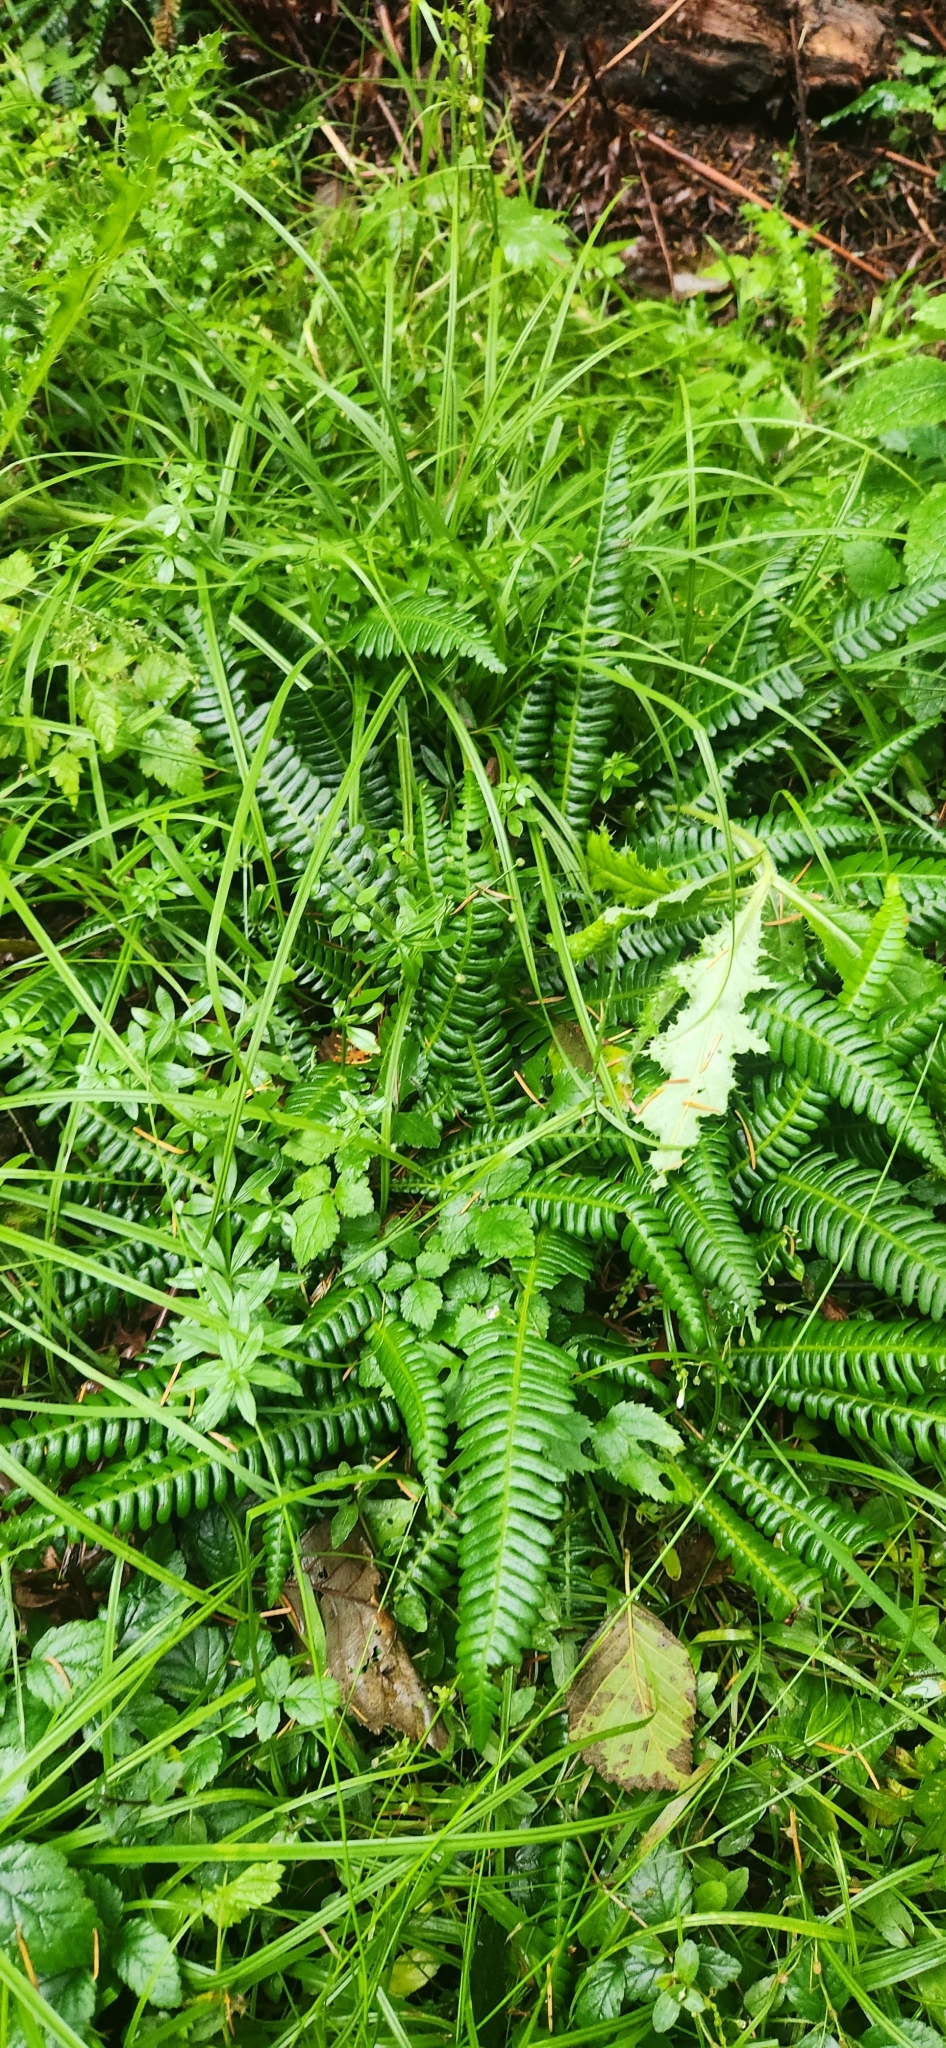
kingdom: Plantae
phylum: Tracheophyta
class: Polypodiopsida
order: Polypodiales
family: Blechnaceae
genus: Struthiopteris
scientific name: Struthiopteris spicant
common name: Deer fern
